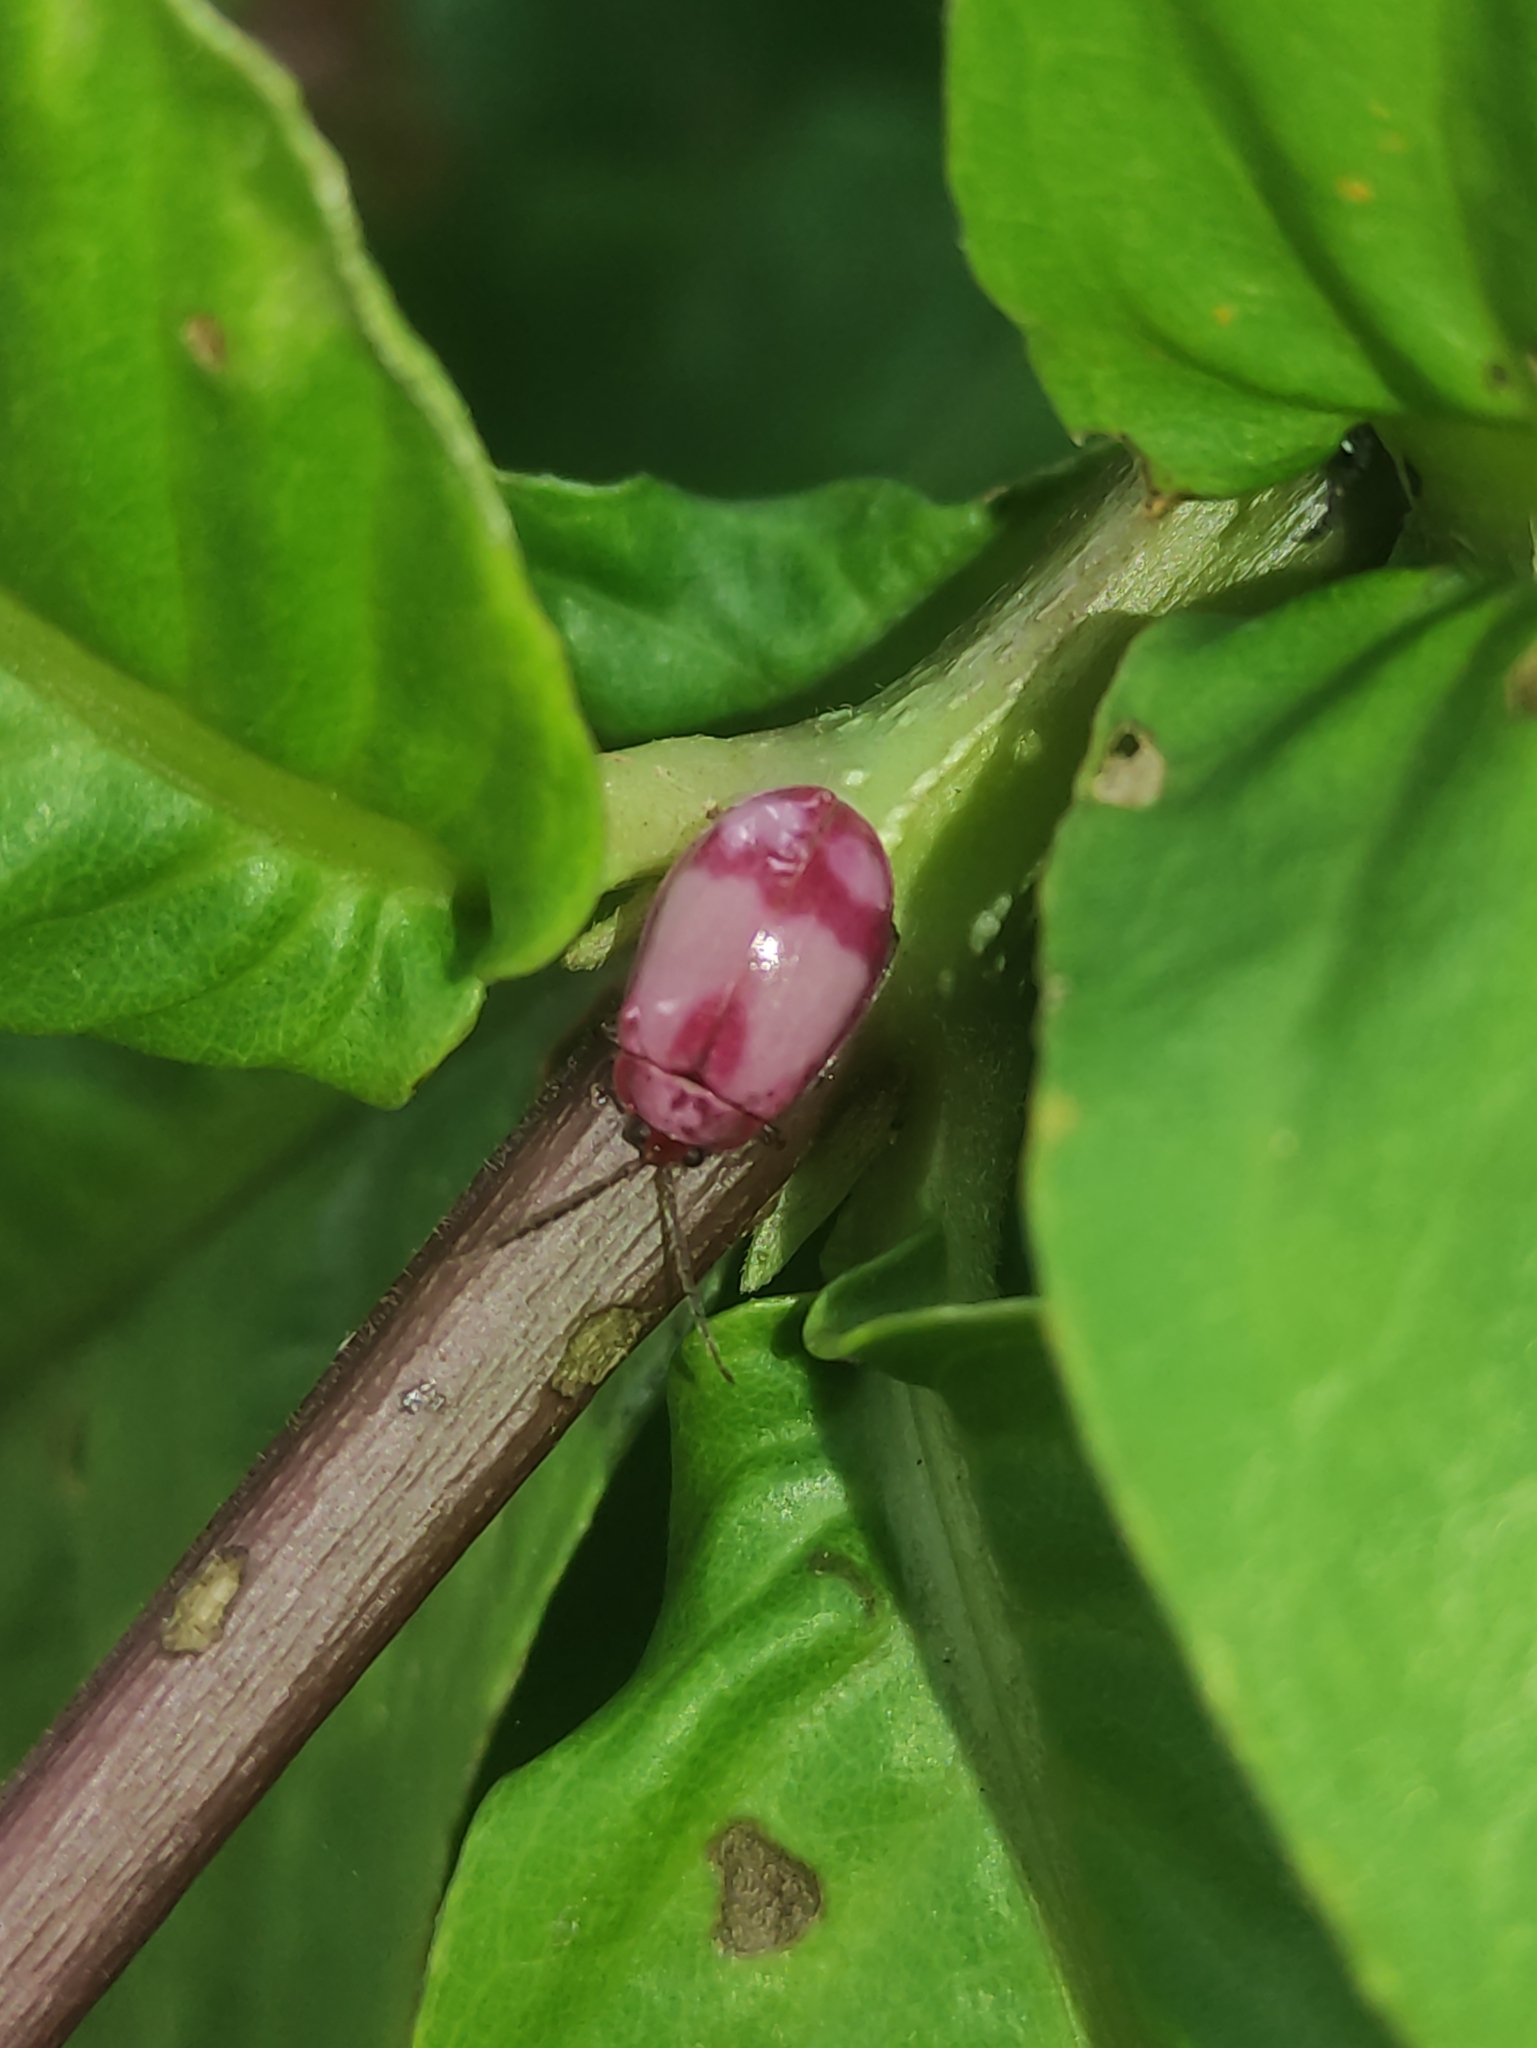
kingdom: Animalia
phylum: Arthropoda
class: Insecta
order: Coleoptera
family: Chrysomelidae
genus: Wanderbiltiana
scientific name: Wanderbiltiana
